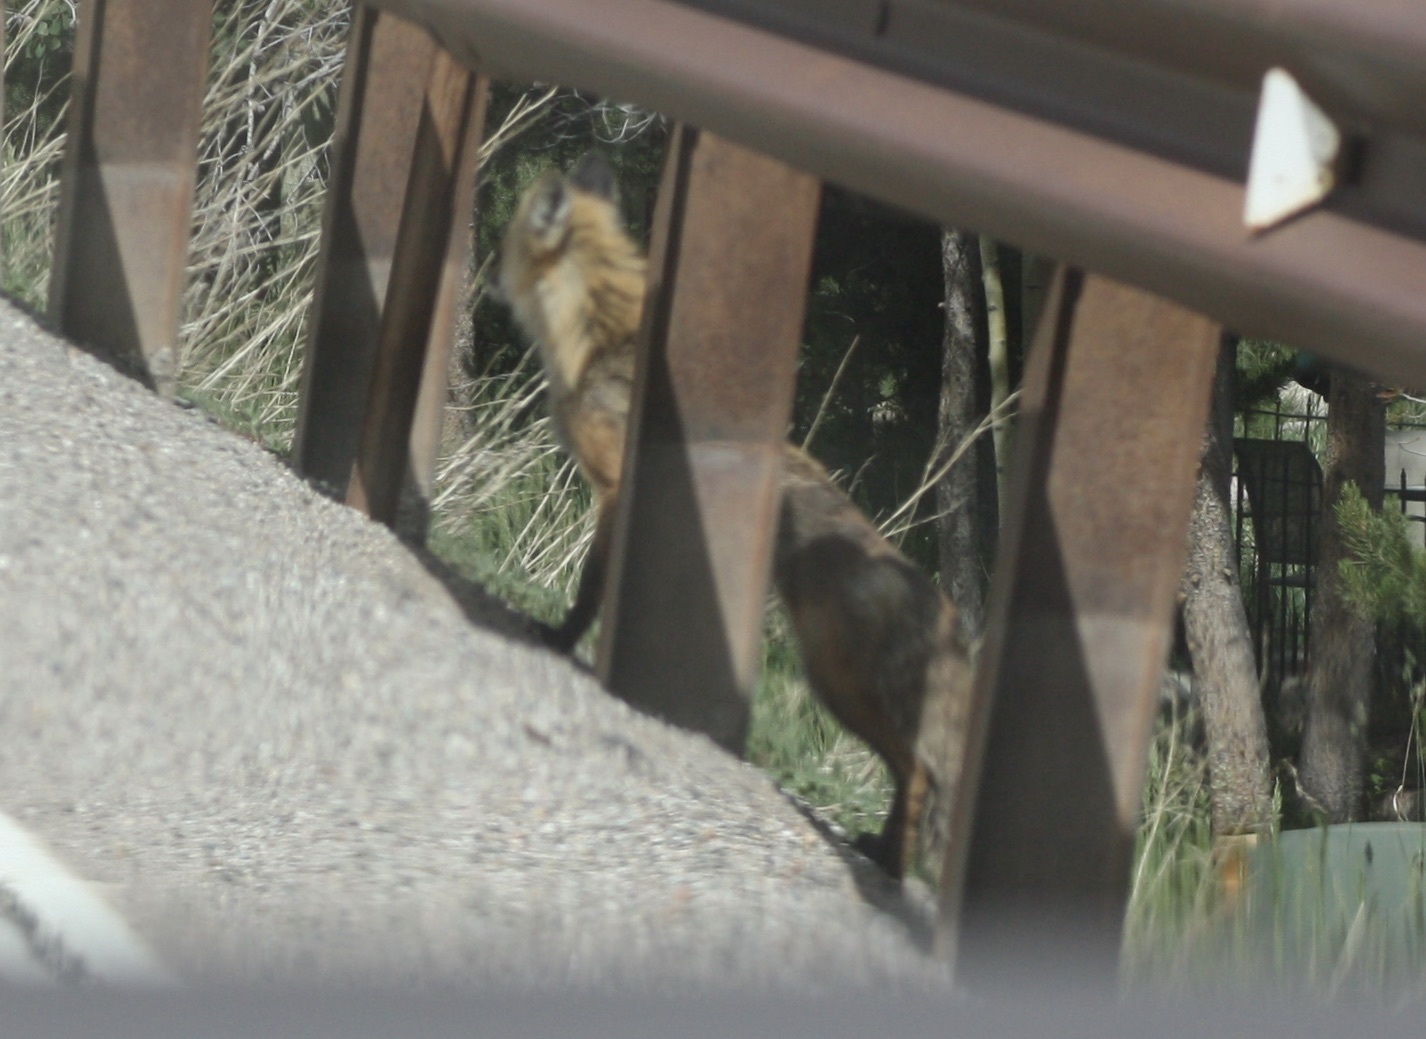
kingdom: Animalia
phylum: Chordata
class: Mammalia
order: Carnivora
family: Canidae
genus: Vulpes
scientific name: Vulpes vulpes
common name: Red fox
